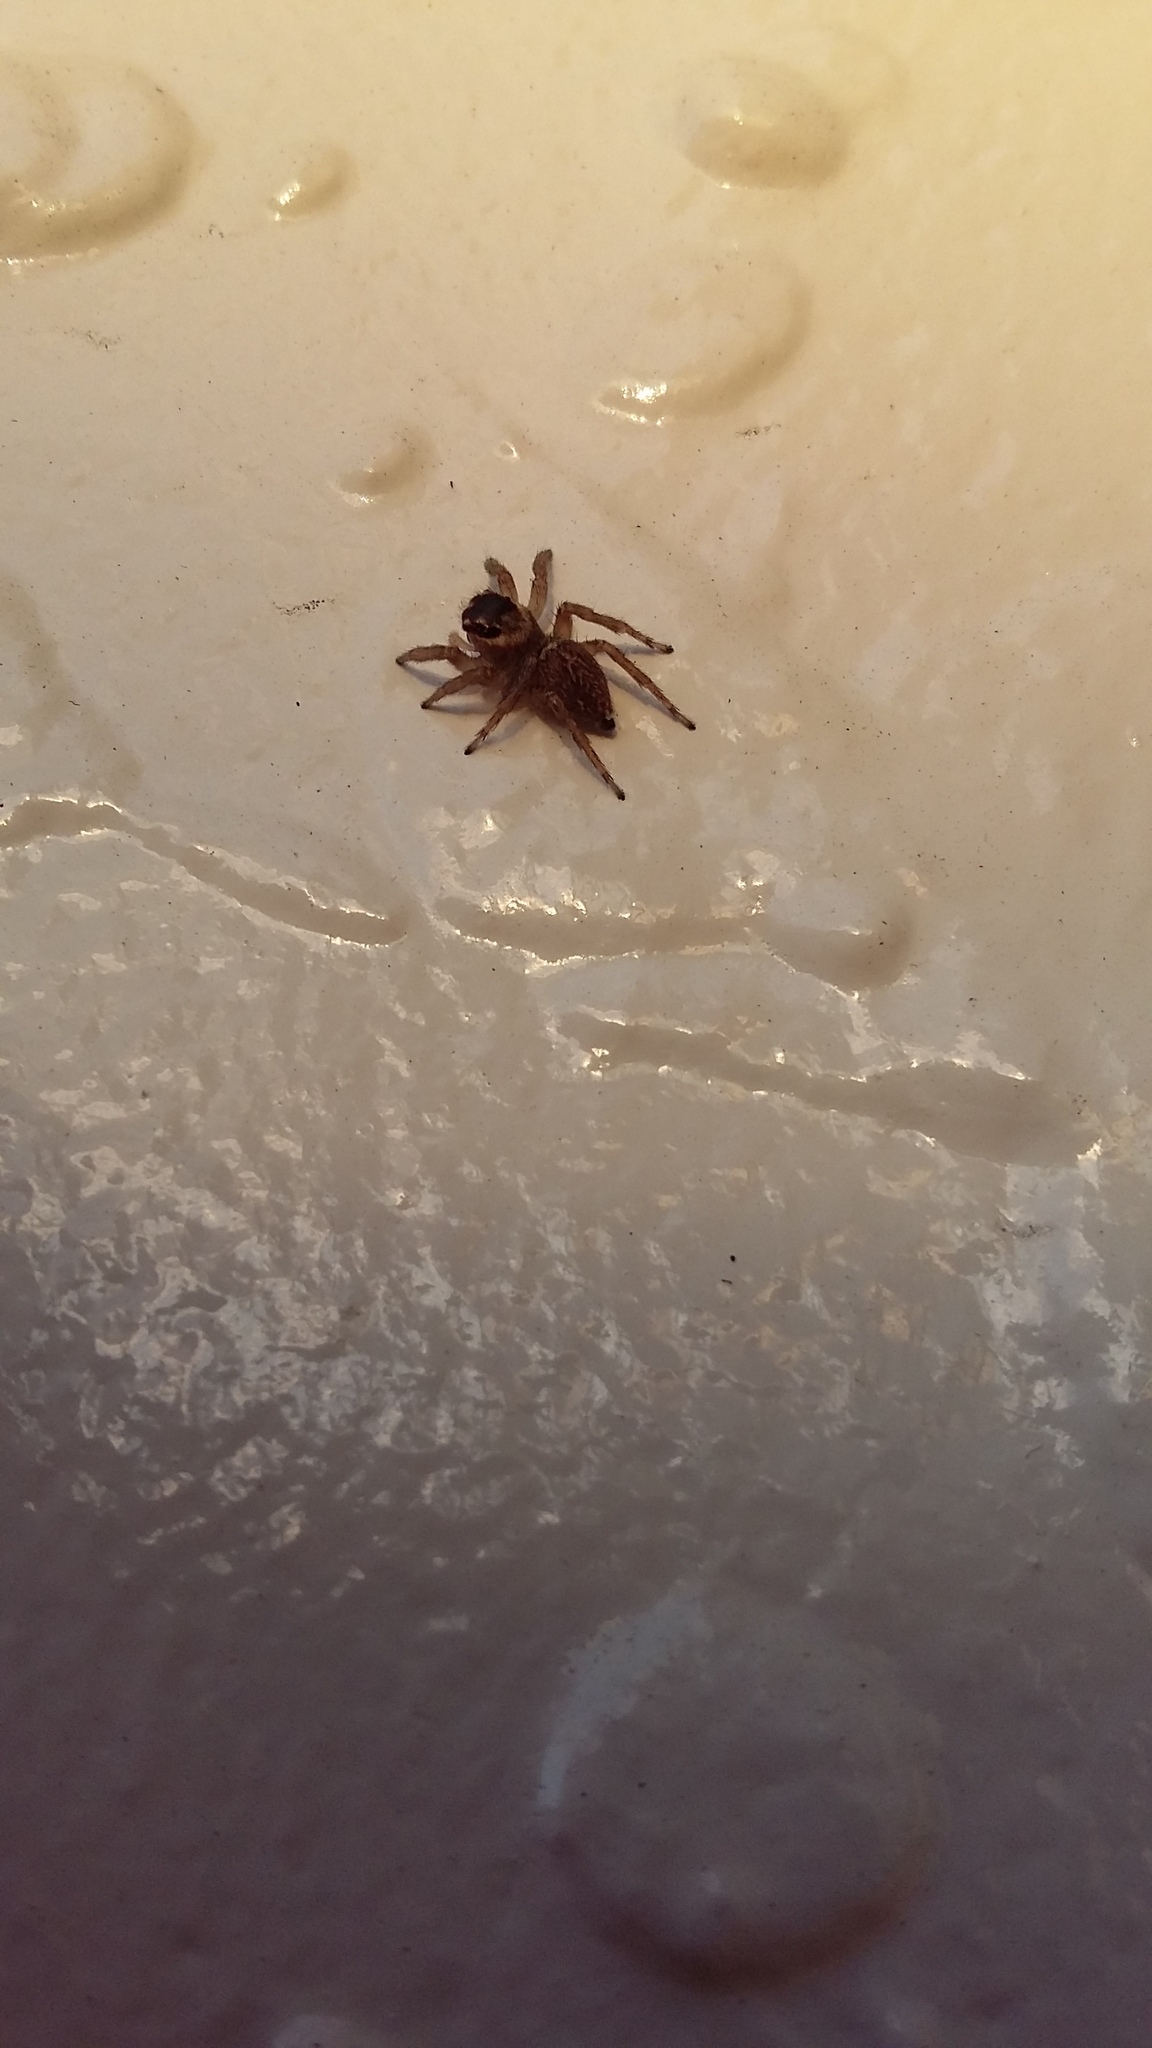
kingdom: Animalia
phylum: Arthropoda
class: Arachnida
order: Araneae
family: Salticidae
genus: Maratus
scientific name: Maratus griseus
